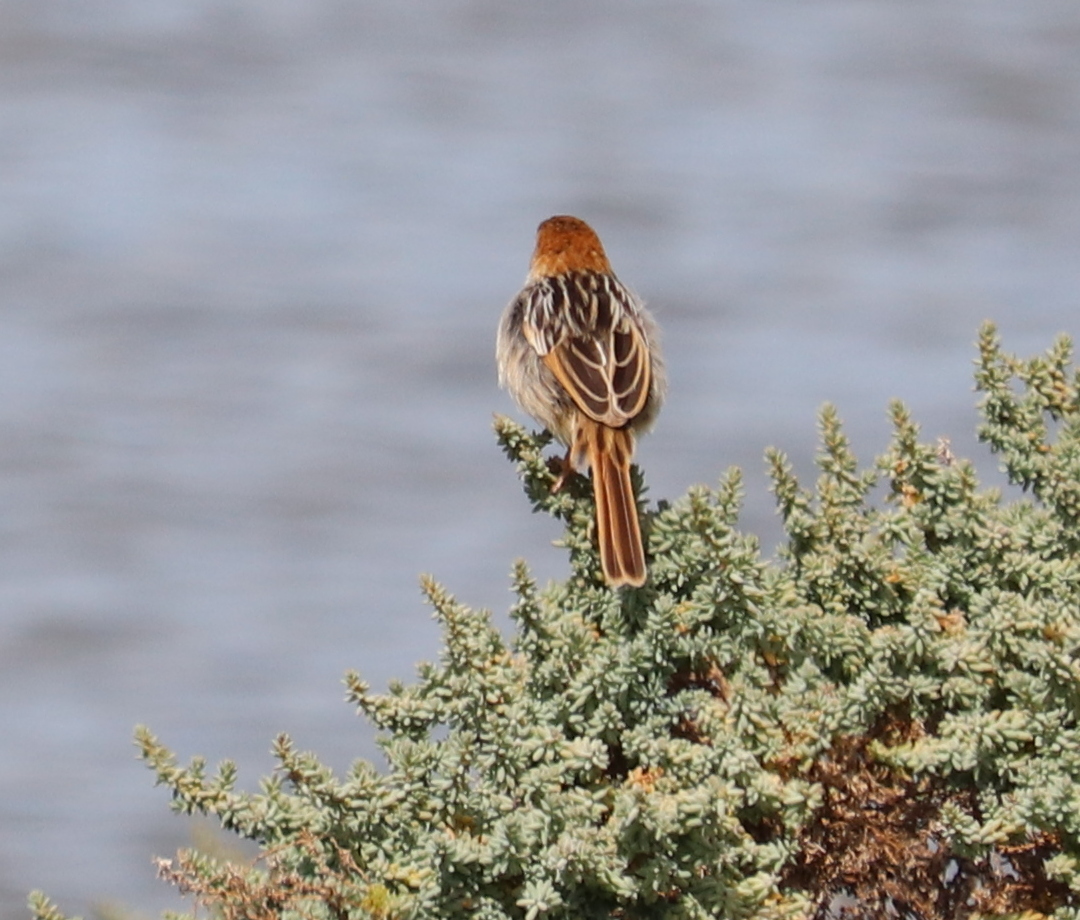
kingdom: Animalia
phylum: Chordata
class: Aves
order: Passeriformes
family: Cisticolidae
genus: Cisticola
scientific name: Cisticola tinniens
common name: Levaillant's cisticola
